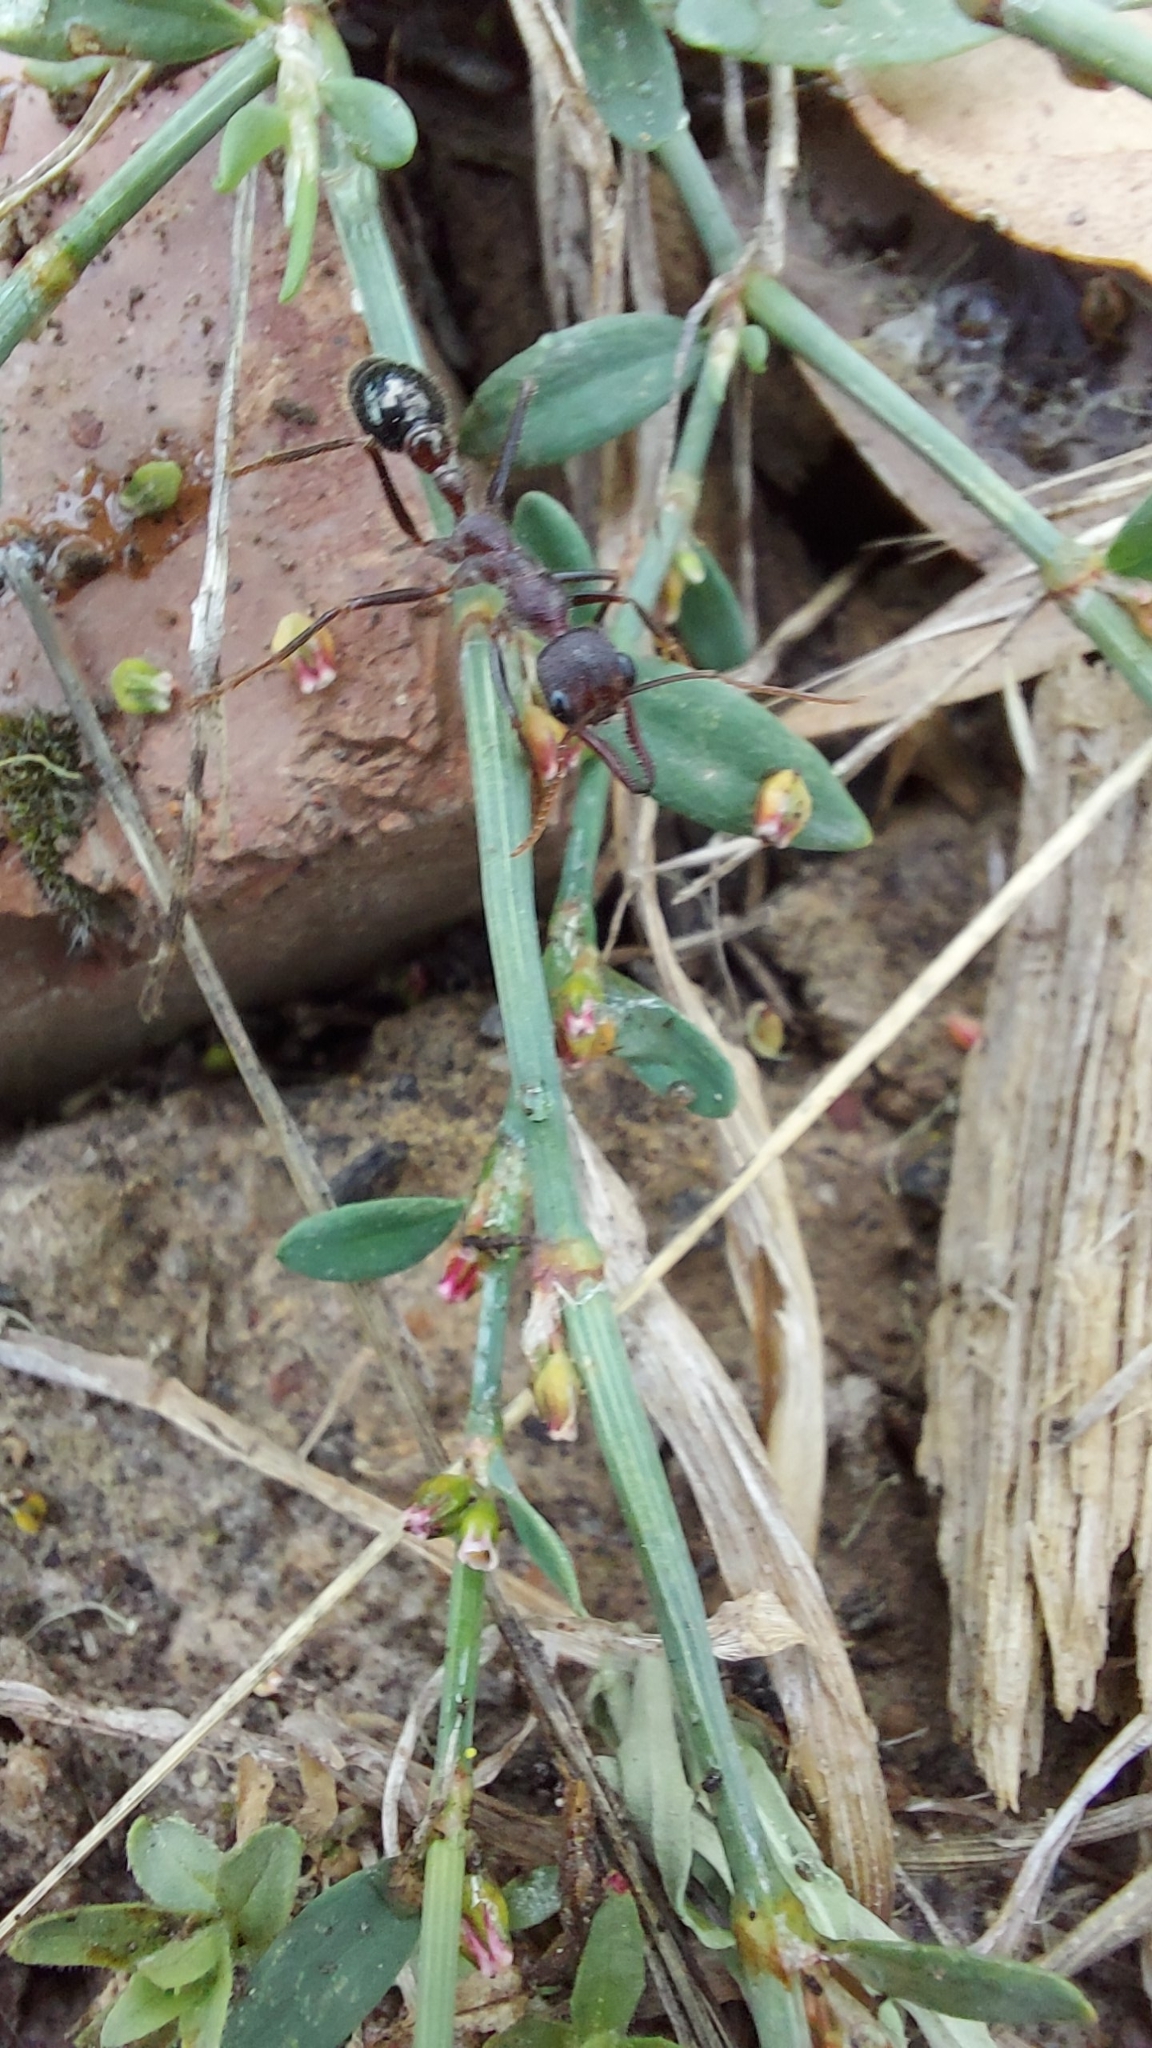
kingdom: Animalia
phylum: Arthropoda
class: Insecta
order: Hymenoptera
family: Formicidae
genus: Myrmecia
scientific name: Myrmecia pyriformis
